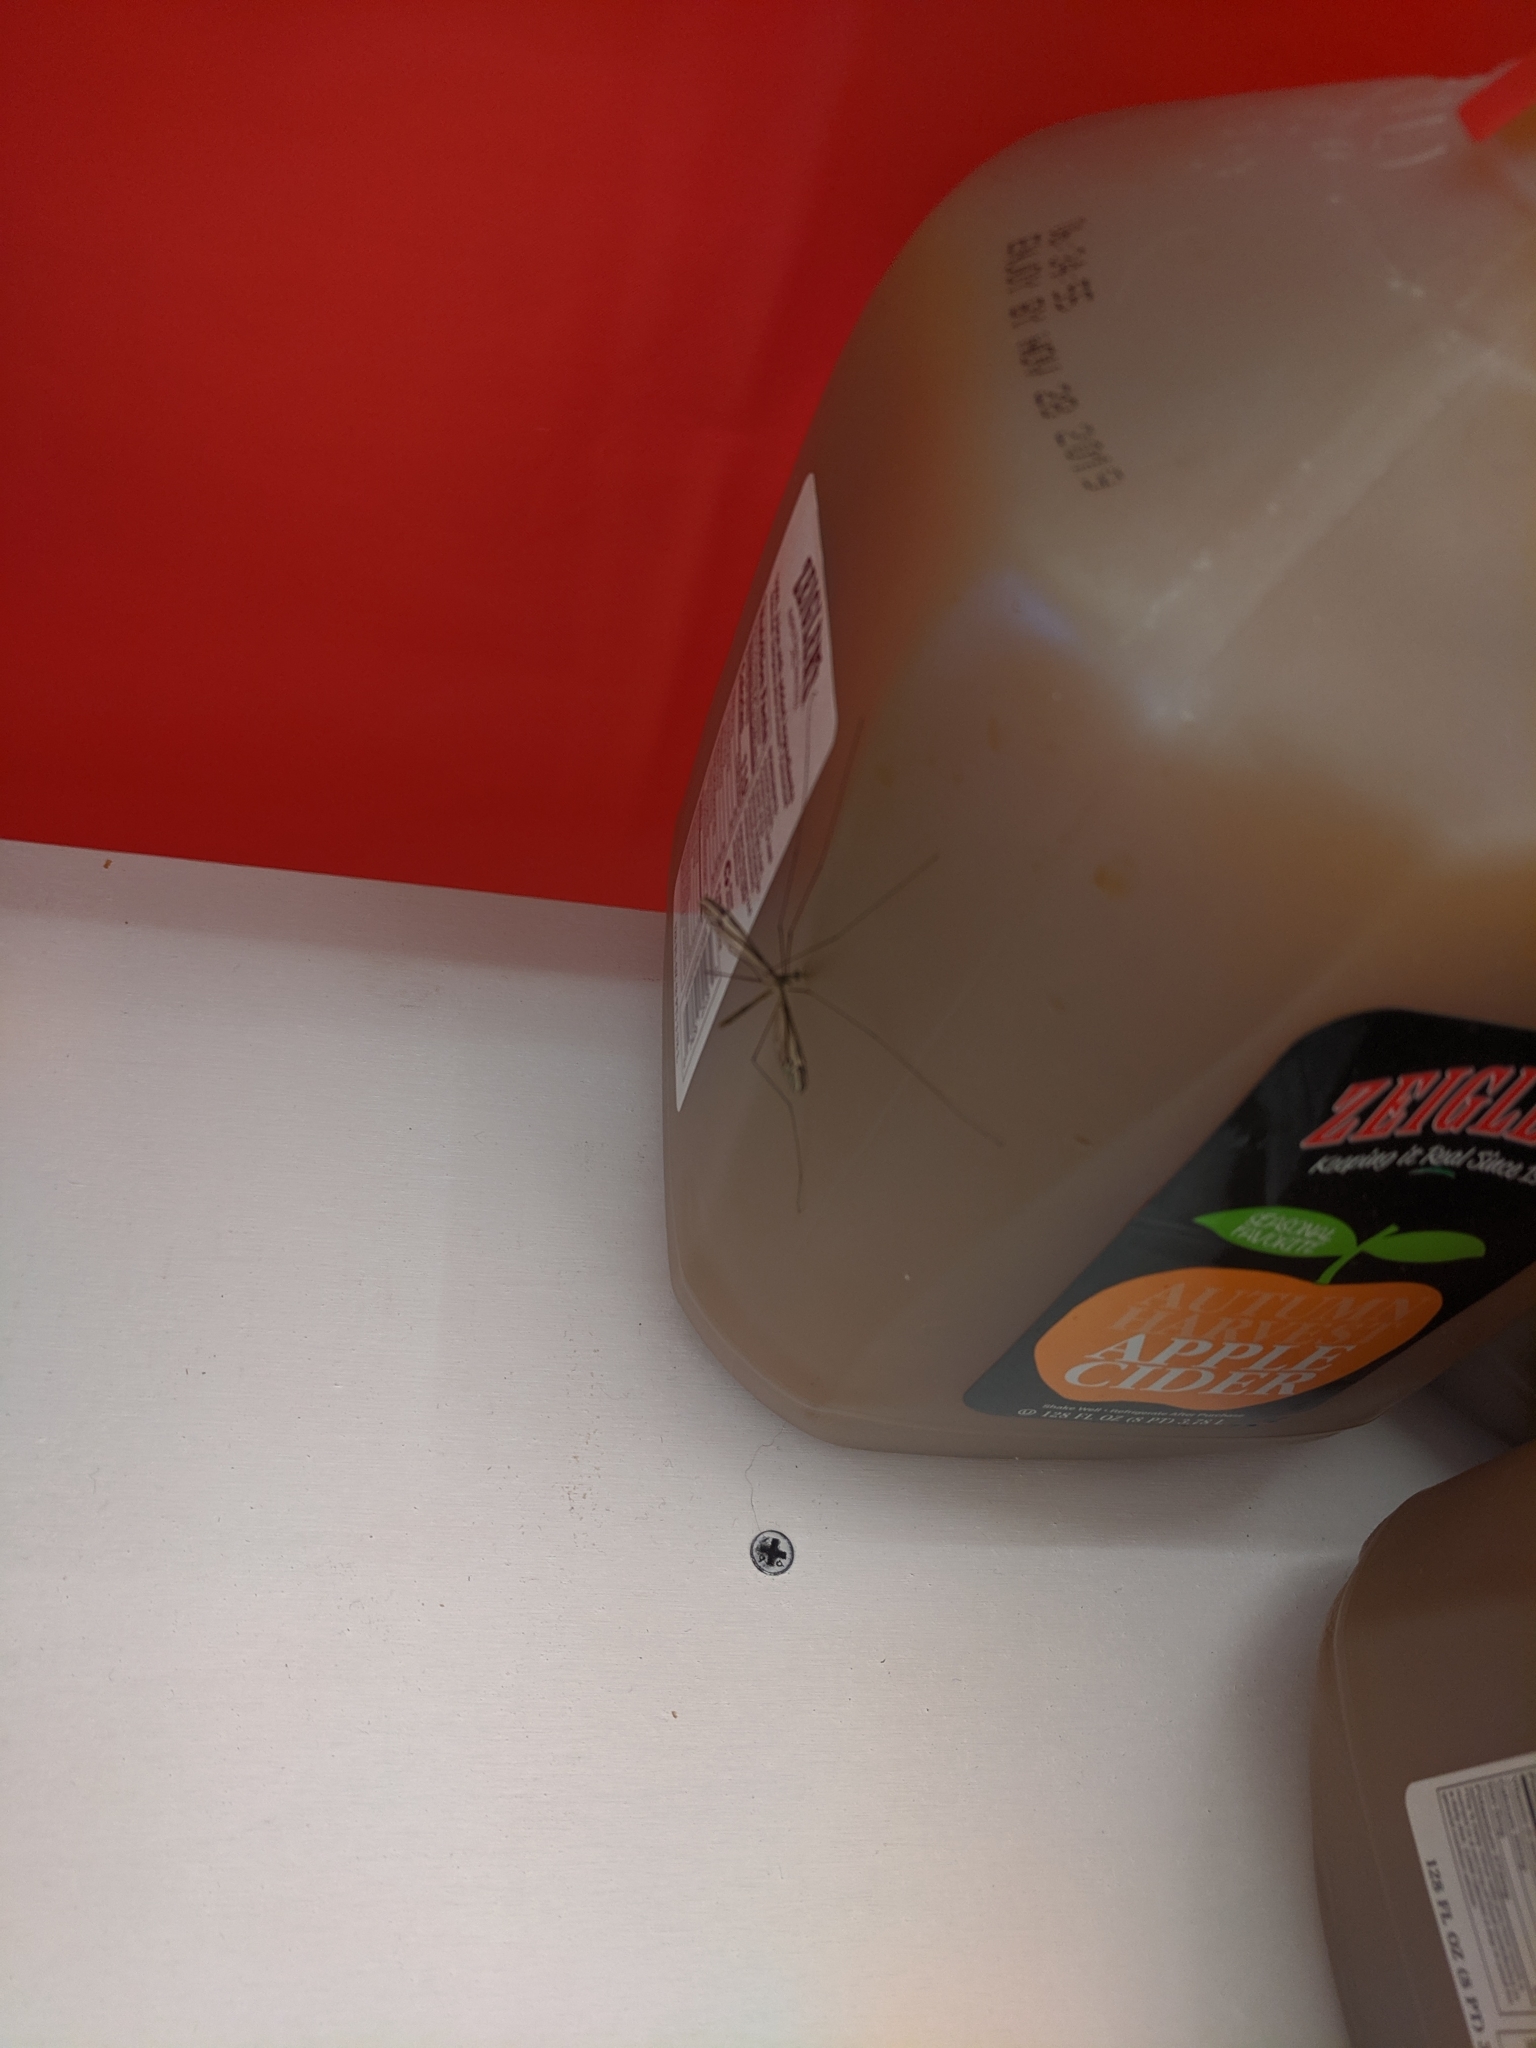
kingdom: Animalia
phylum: Arthropoda
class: Insecta
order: Diptera
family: Tipulidae
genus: Tipula
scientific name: Tipula furca
